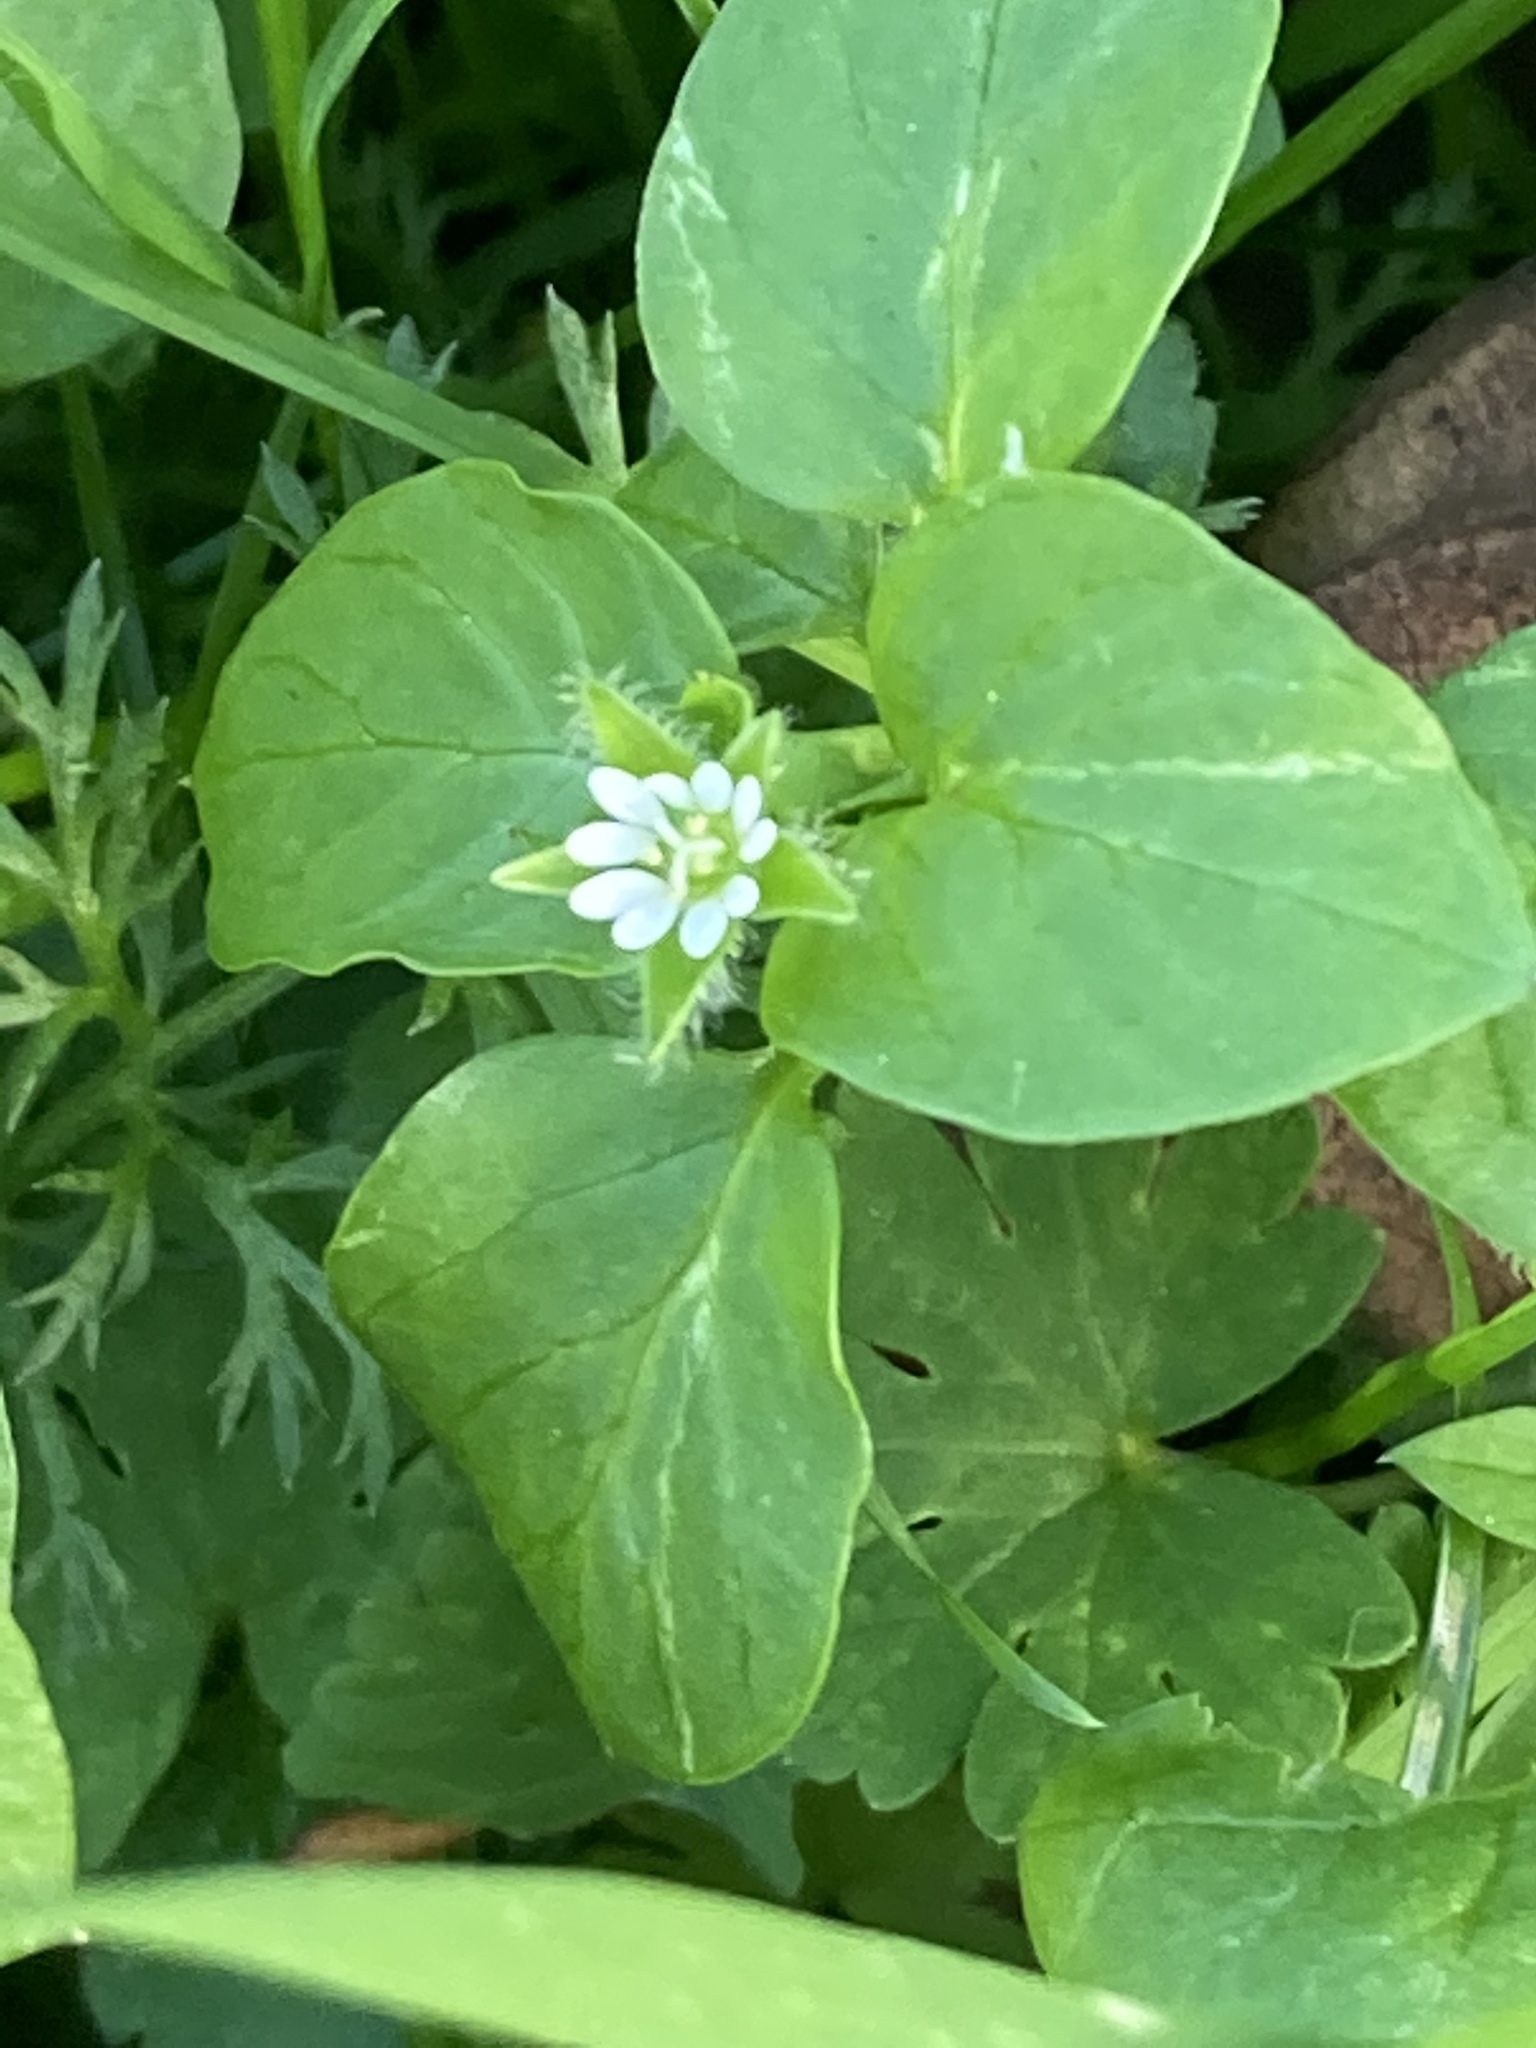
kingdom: Plantae
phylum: Tracheophyta
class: Magnoliopsida
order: Caryophyllales
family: Caryophyllaceae
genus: Stellaria
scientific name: Stellaria media
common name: Common chickweed
